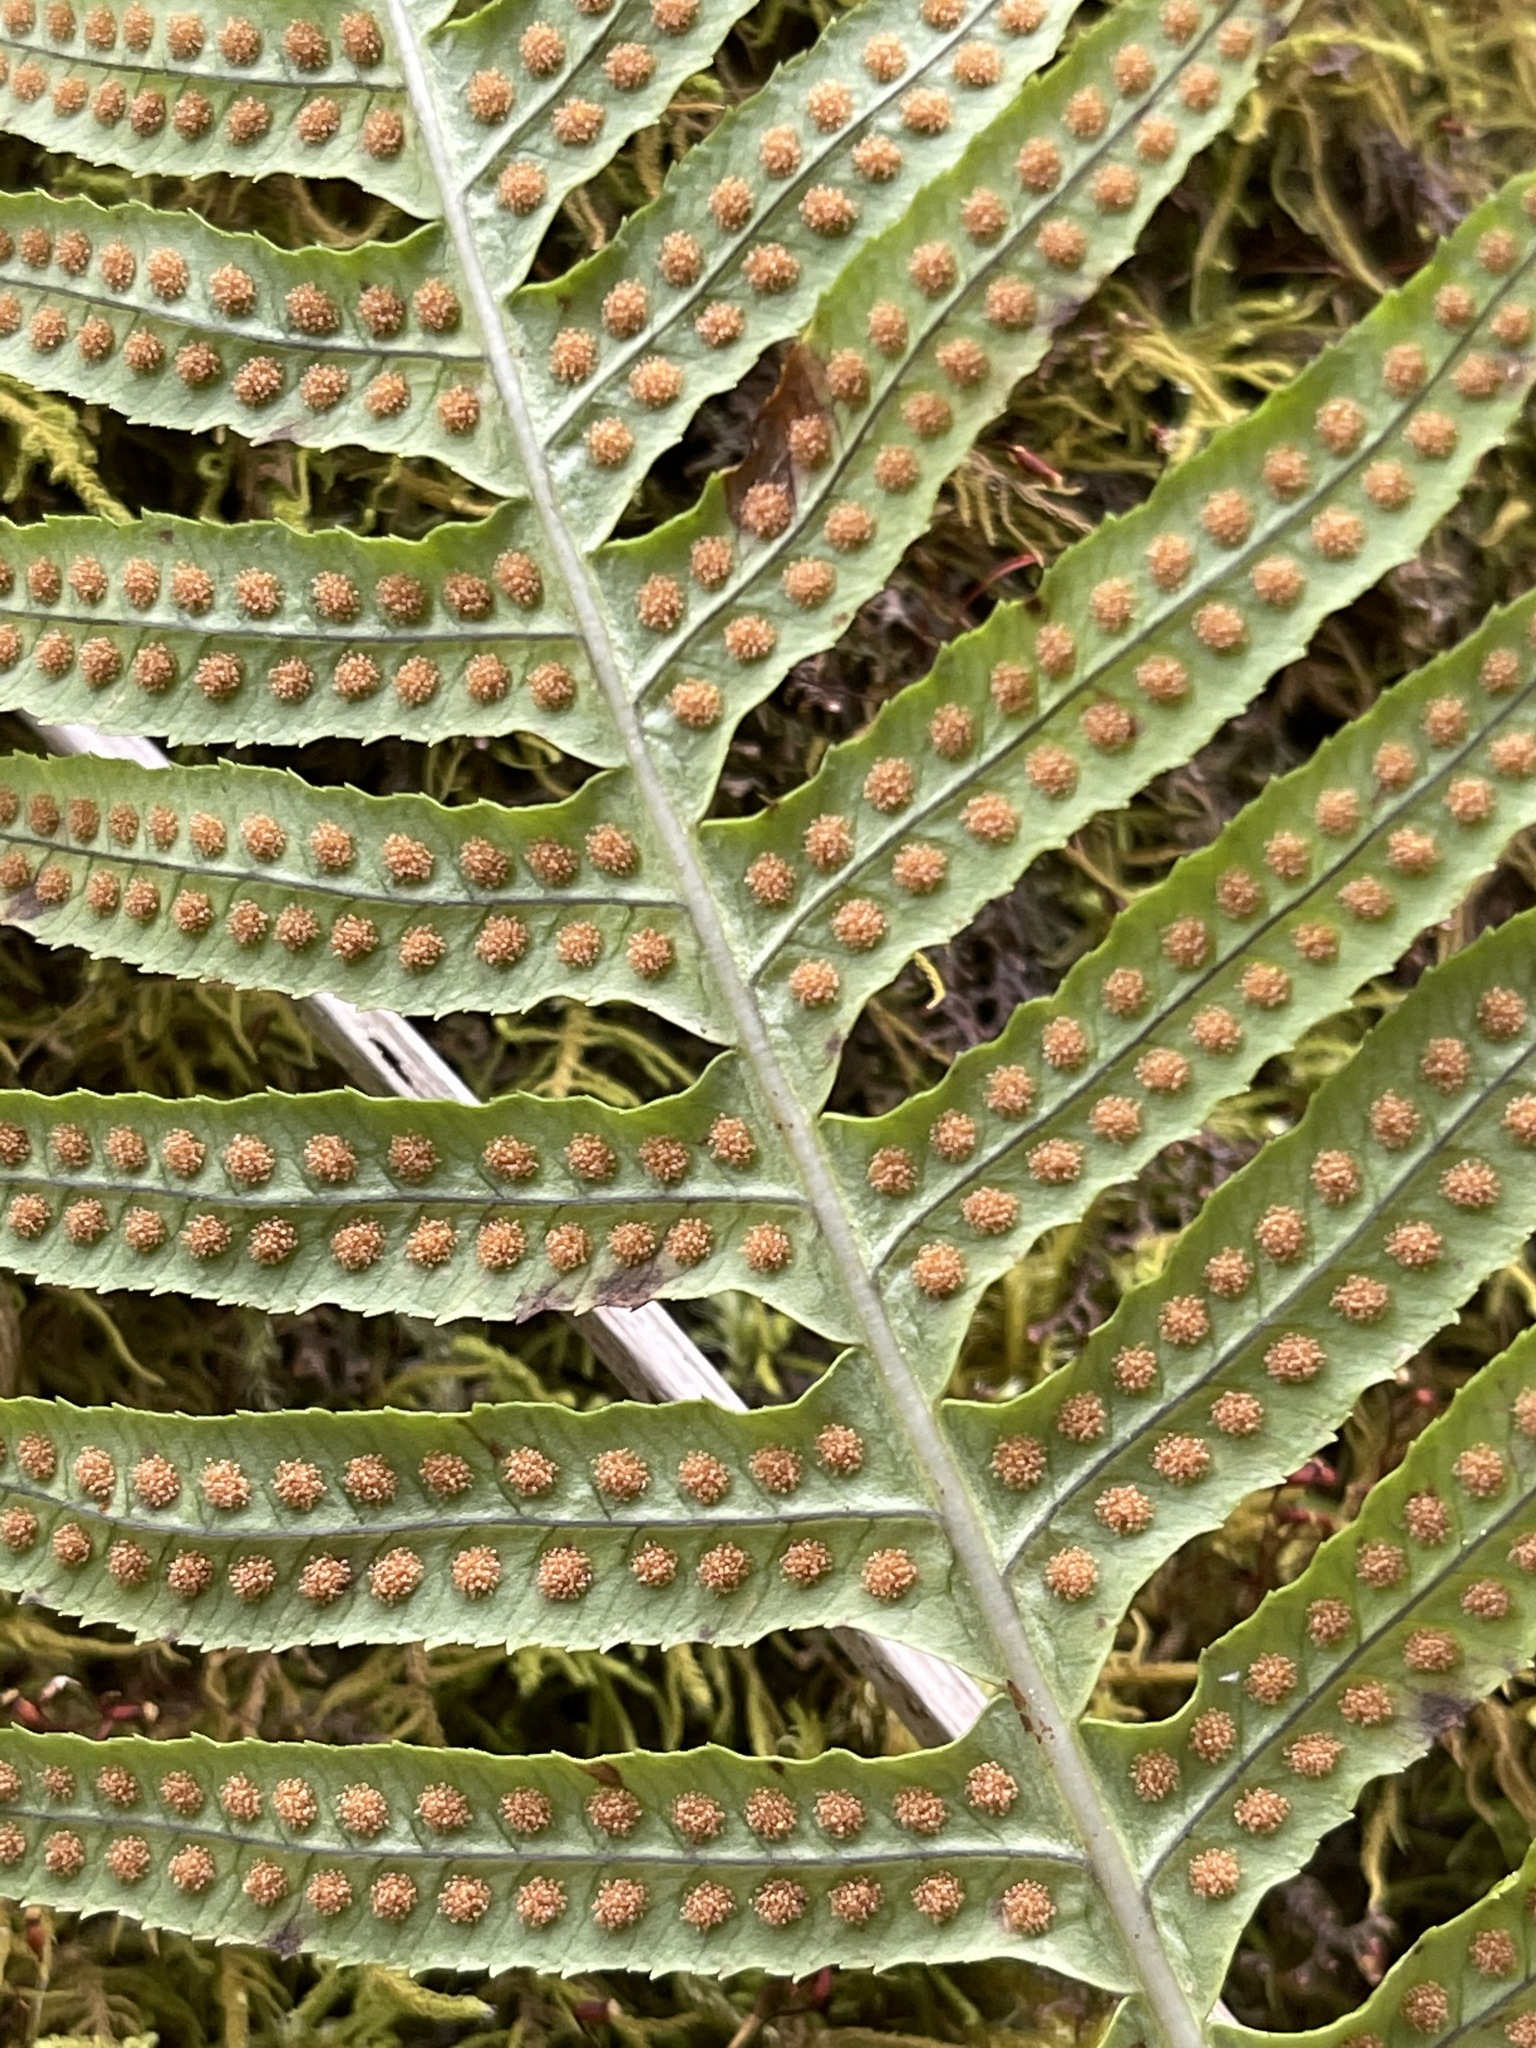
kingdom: Plantae
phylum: Tracheophyta
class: Polypodiopsida
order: Polypodiales
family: Polypodiaceae
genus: Polypodium
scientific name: Polypodium glycyrrhiza
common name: Licorice fern
